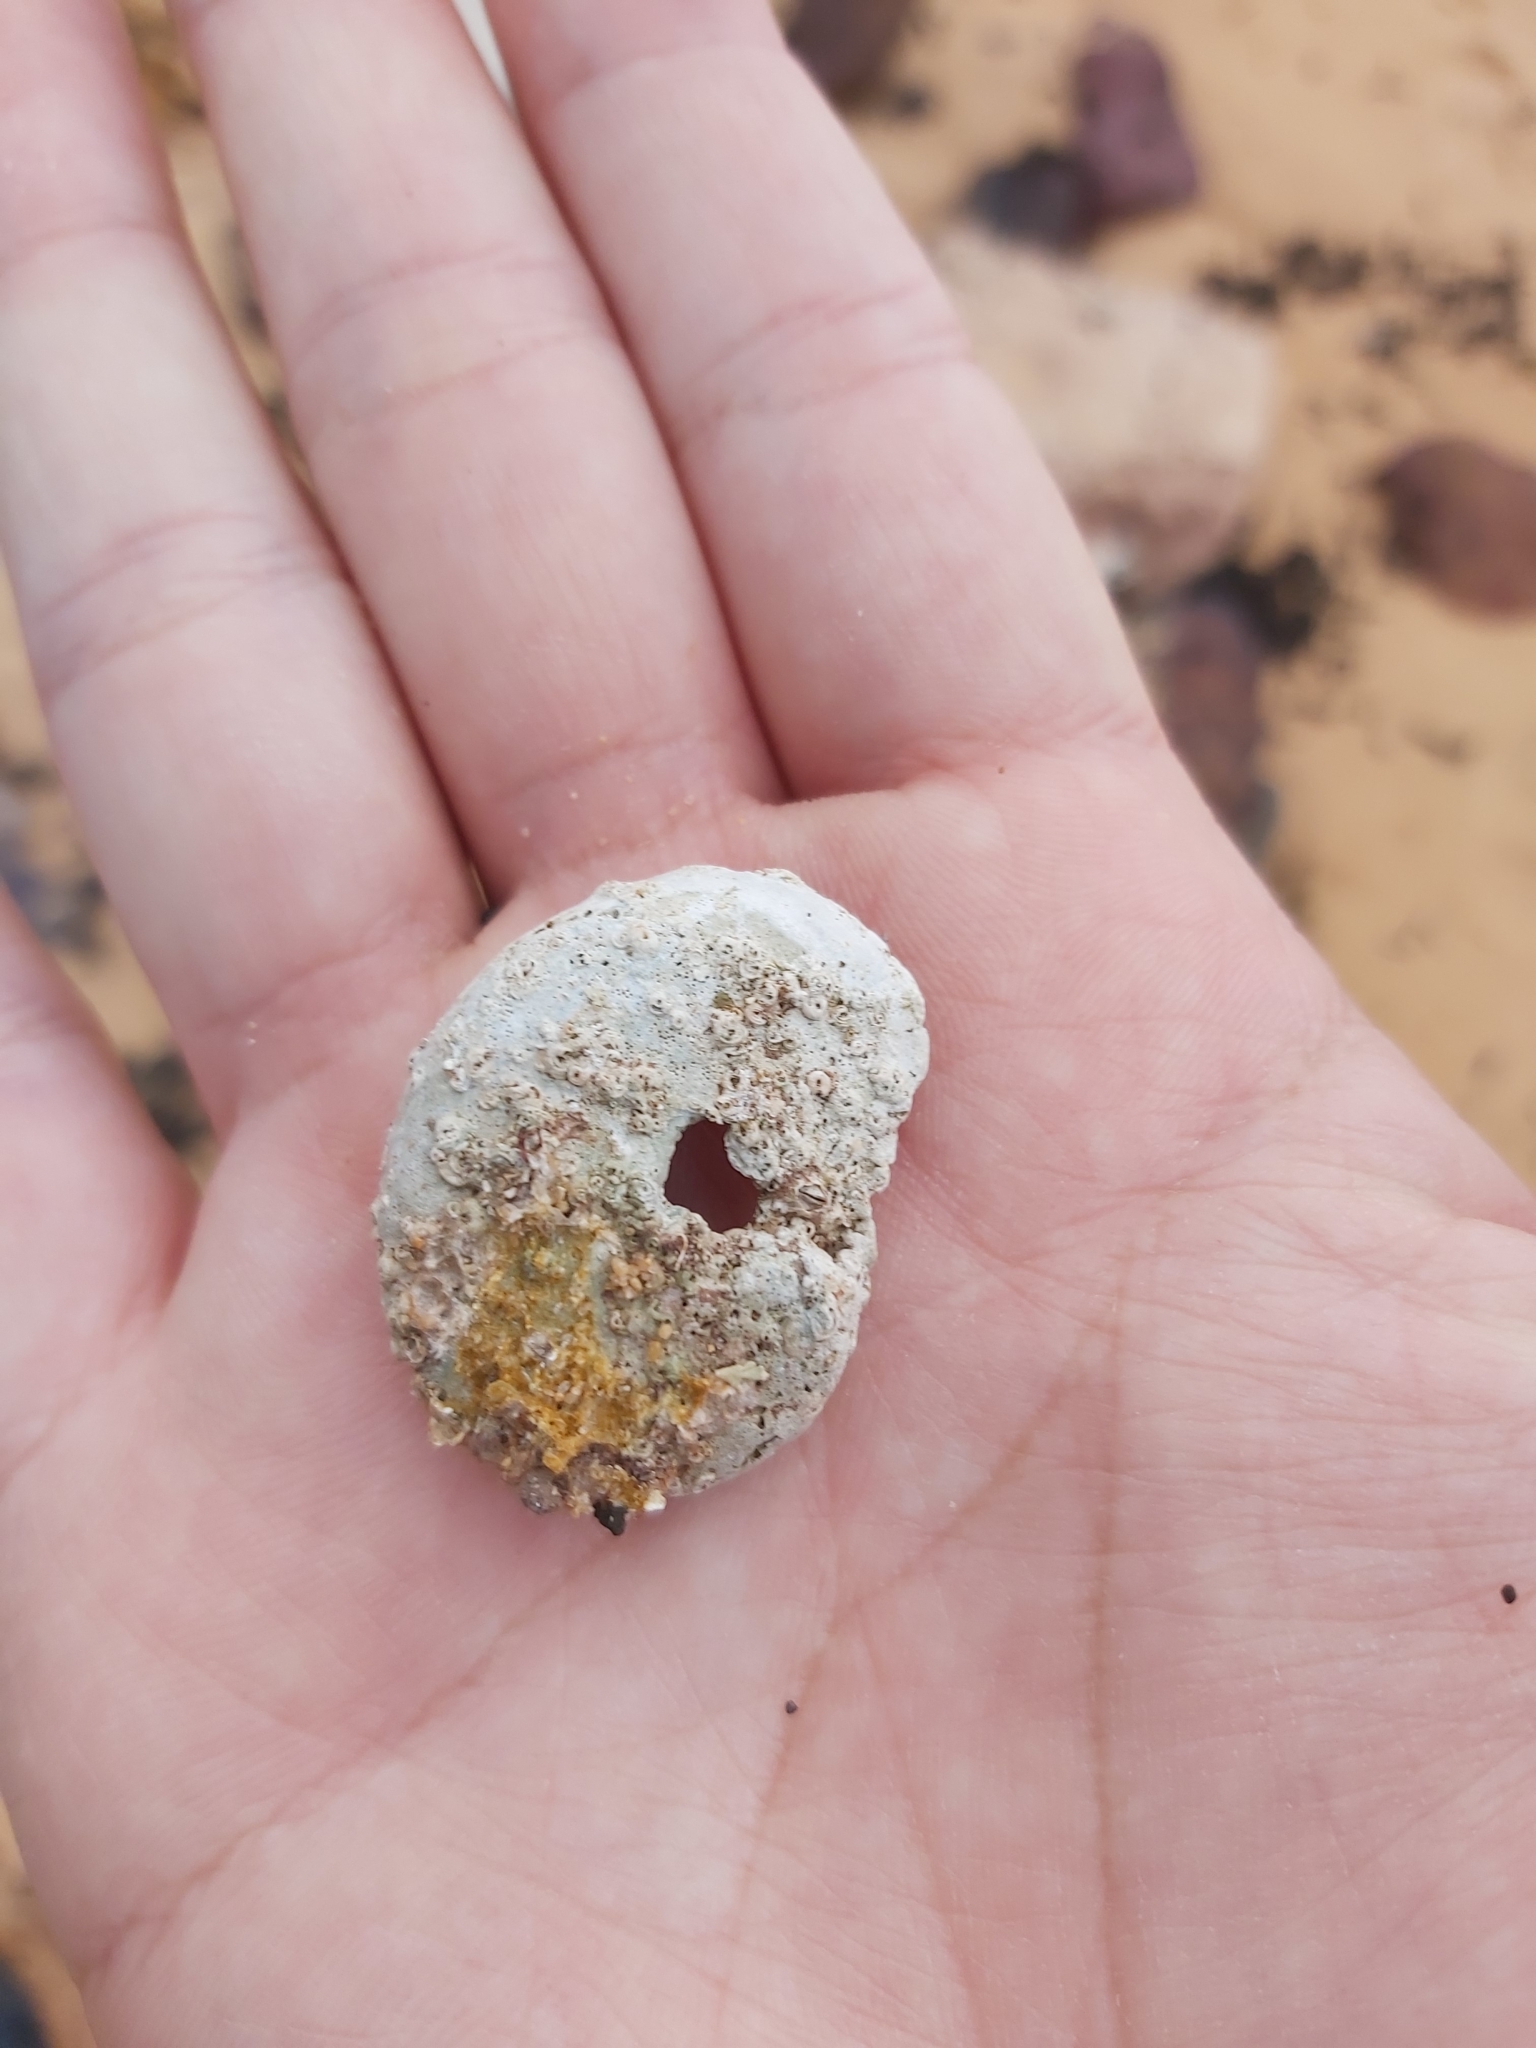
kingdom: Animalia
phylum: Mollusca
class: Gastropoda
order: Seguenziida
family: Chilodontaidae
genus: Granata
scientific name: Granata imbricata
